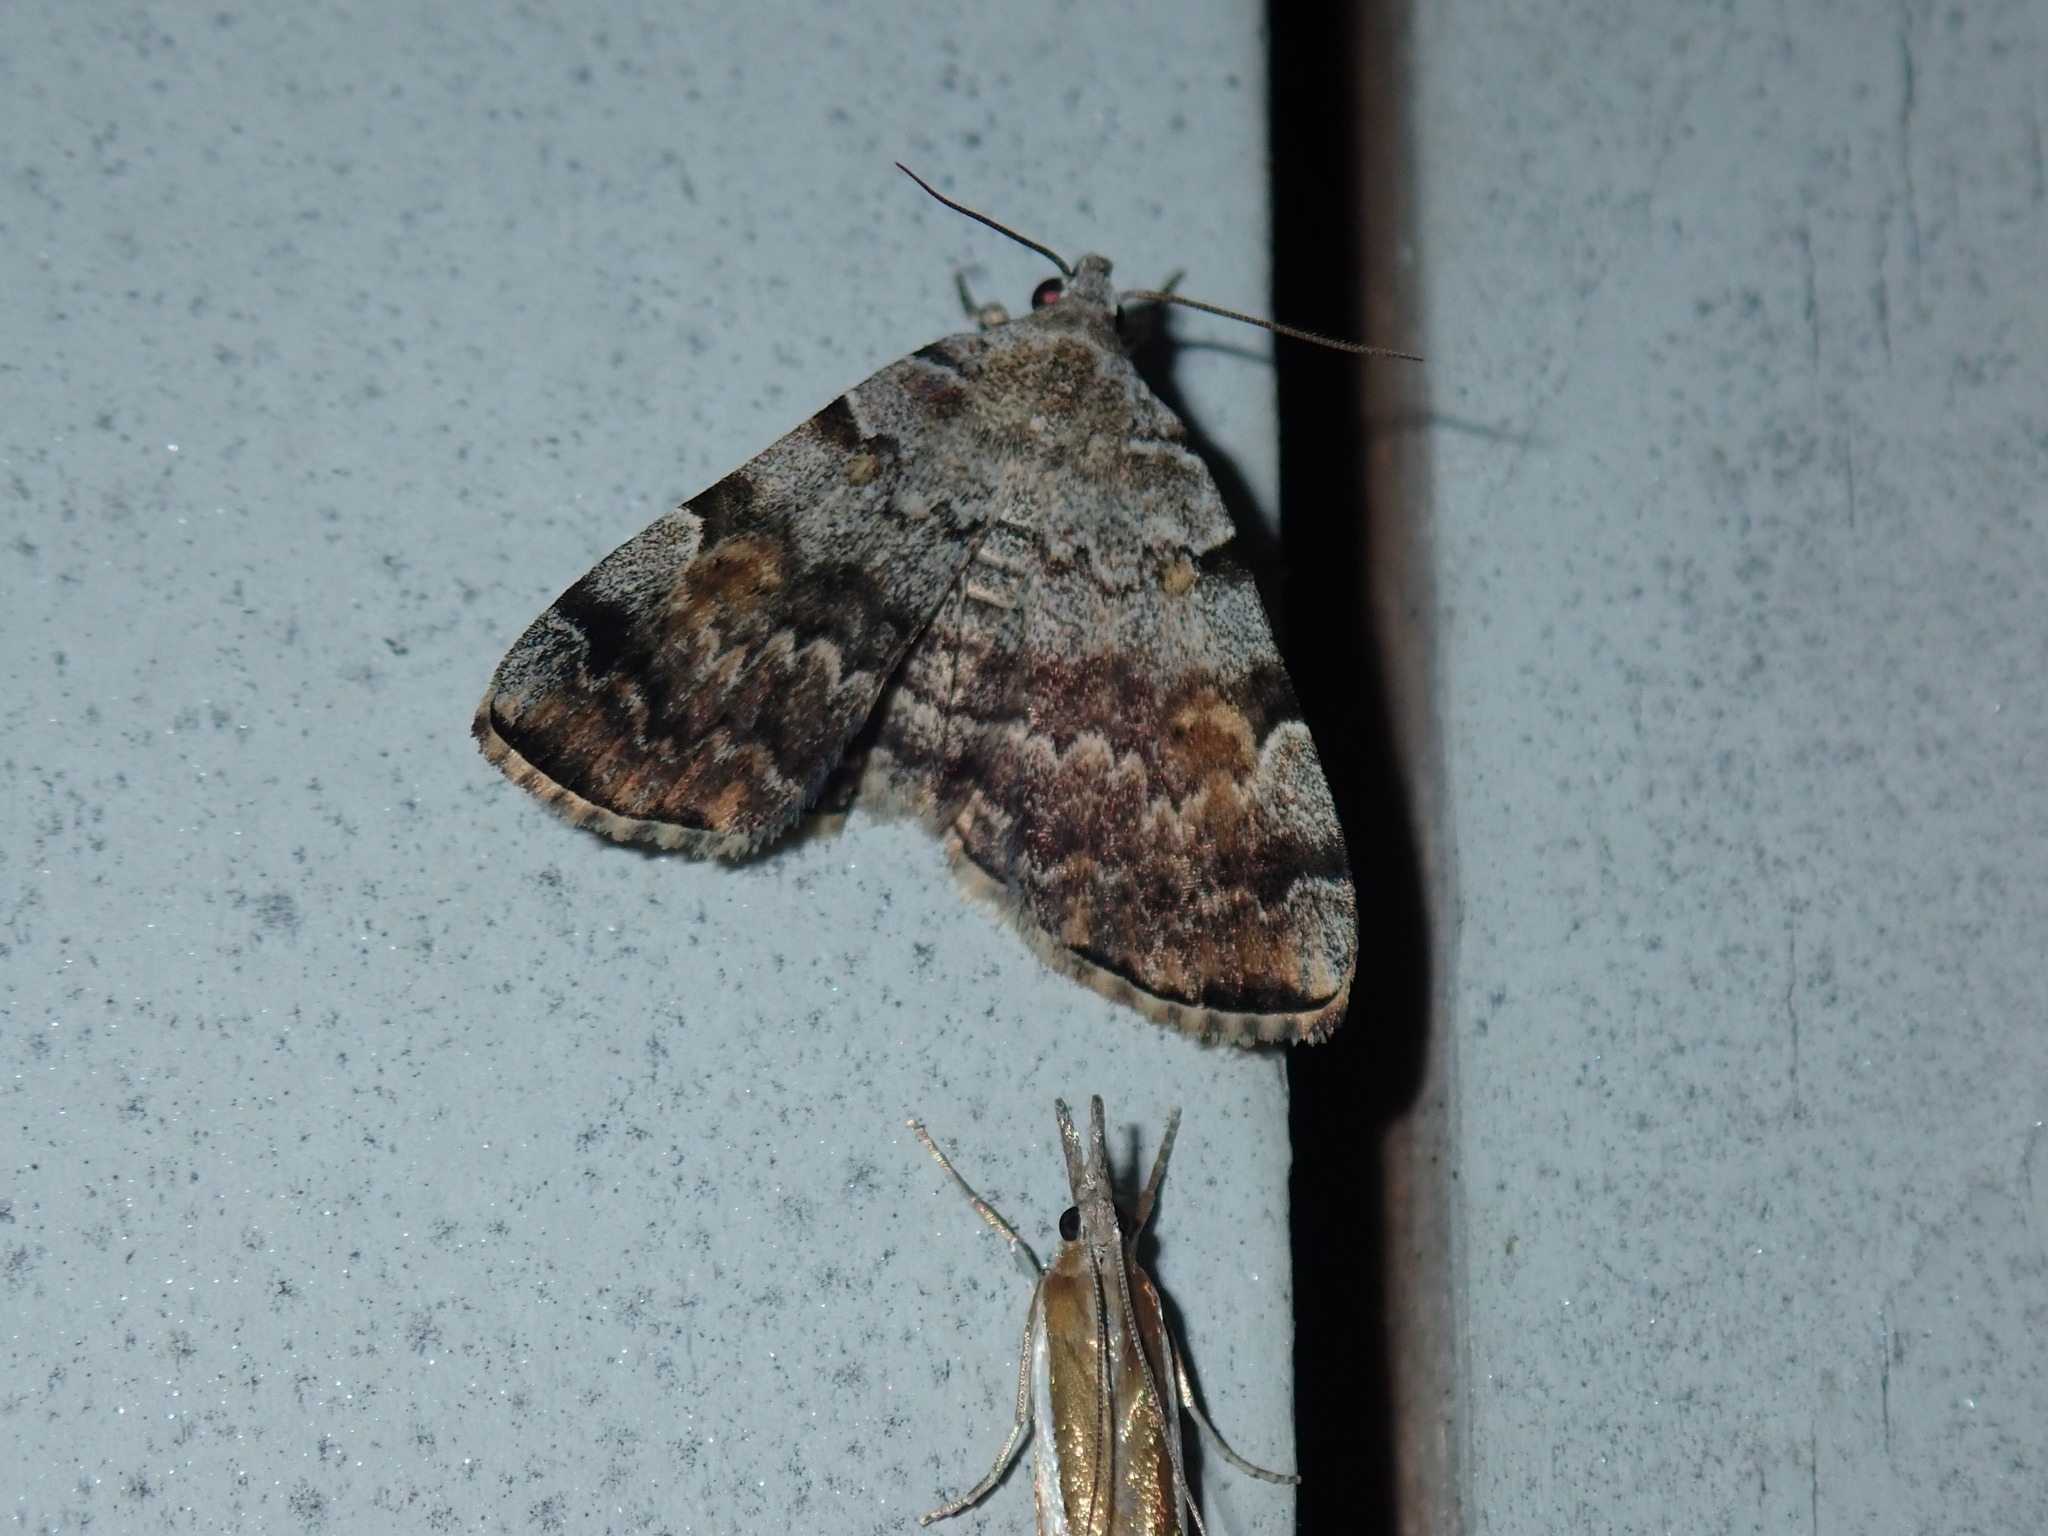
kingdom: Animalia
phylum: Arthropoda
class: Insecta
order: Lepidoptera
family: Erebidae
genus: Idia
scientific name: Idia americalis
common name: American idia moth
